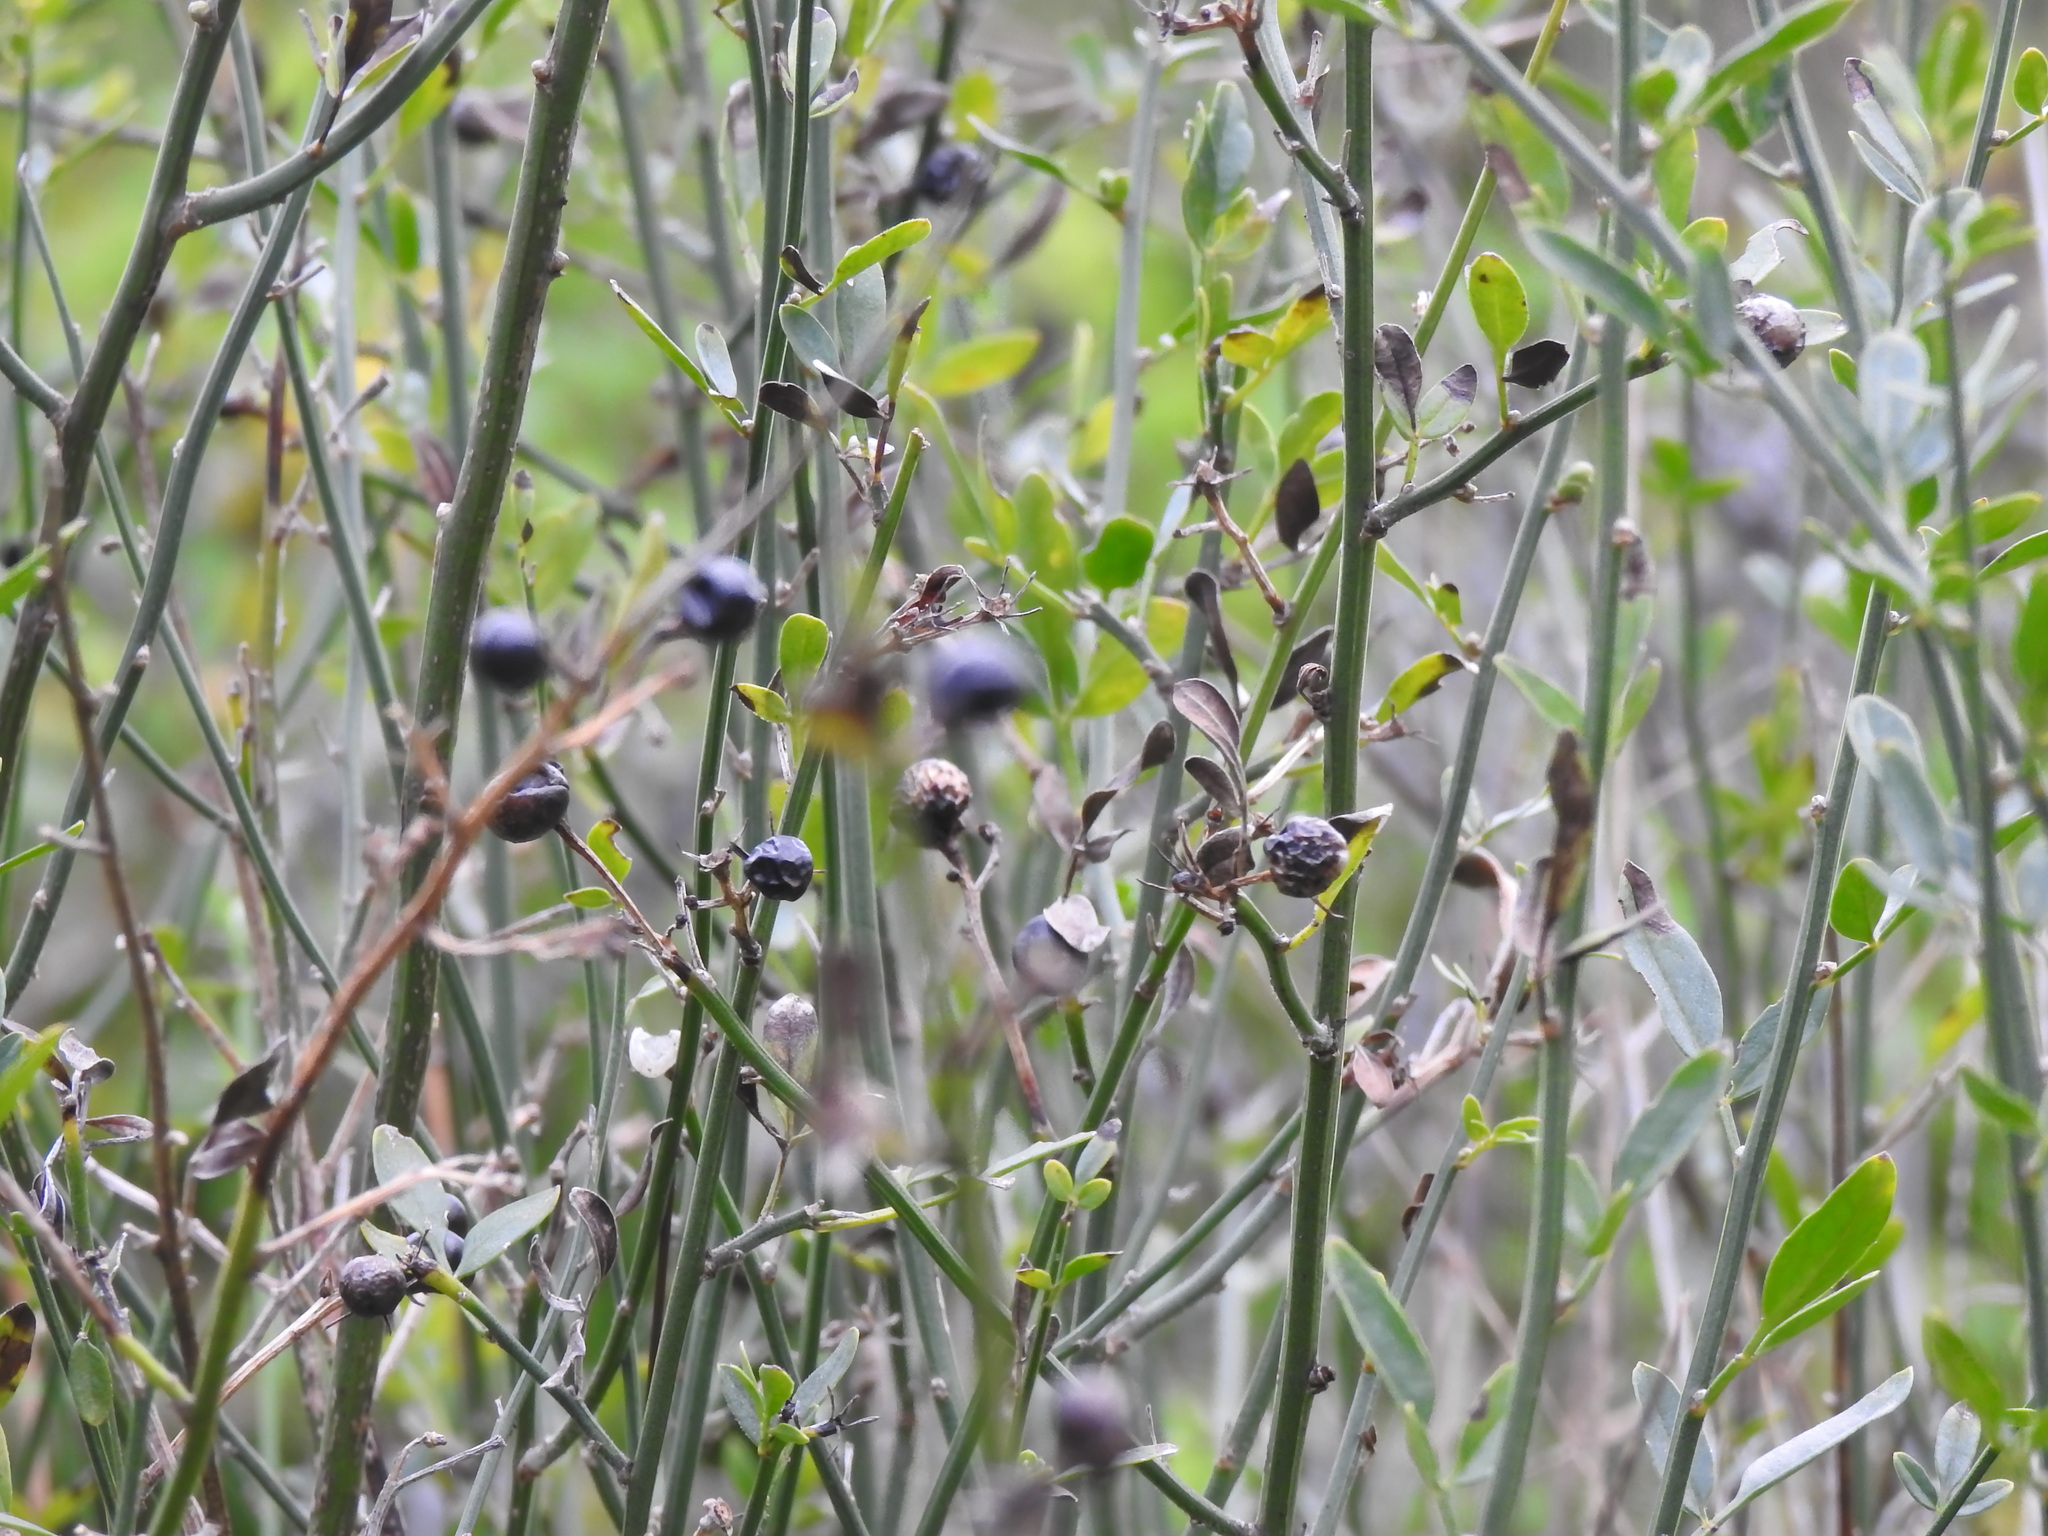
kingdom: Plantae
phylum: Tracheophyta
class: Magnoliopsida
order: Lamiales
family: Oleaceae
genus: Chrysojasminum
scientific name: Chrysojasminum fruticans
